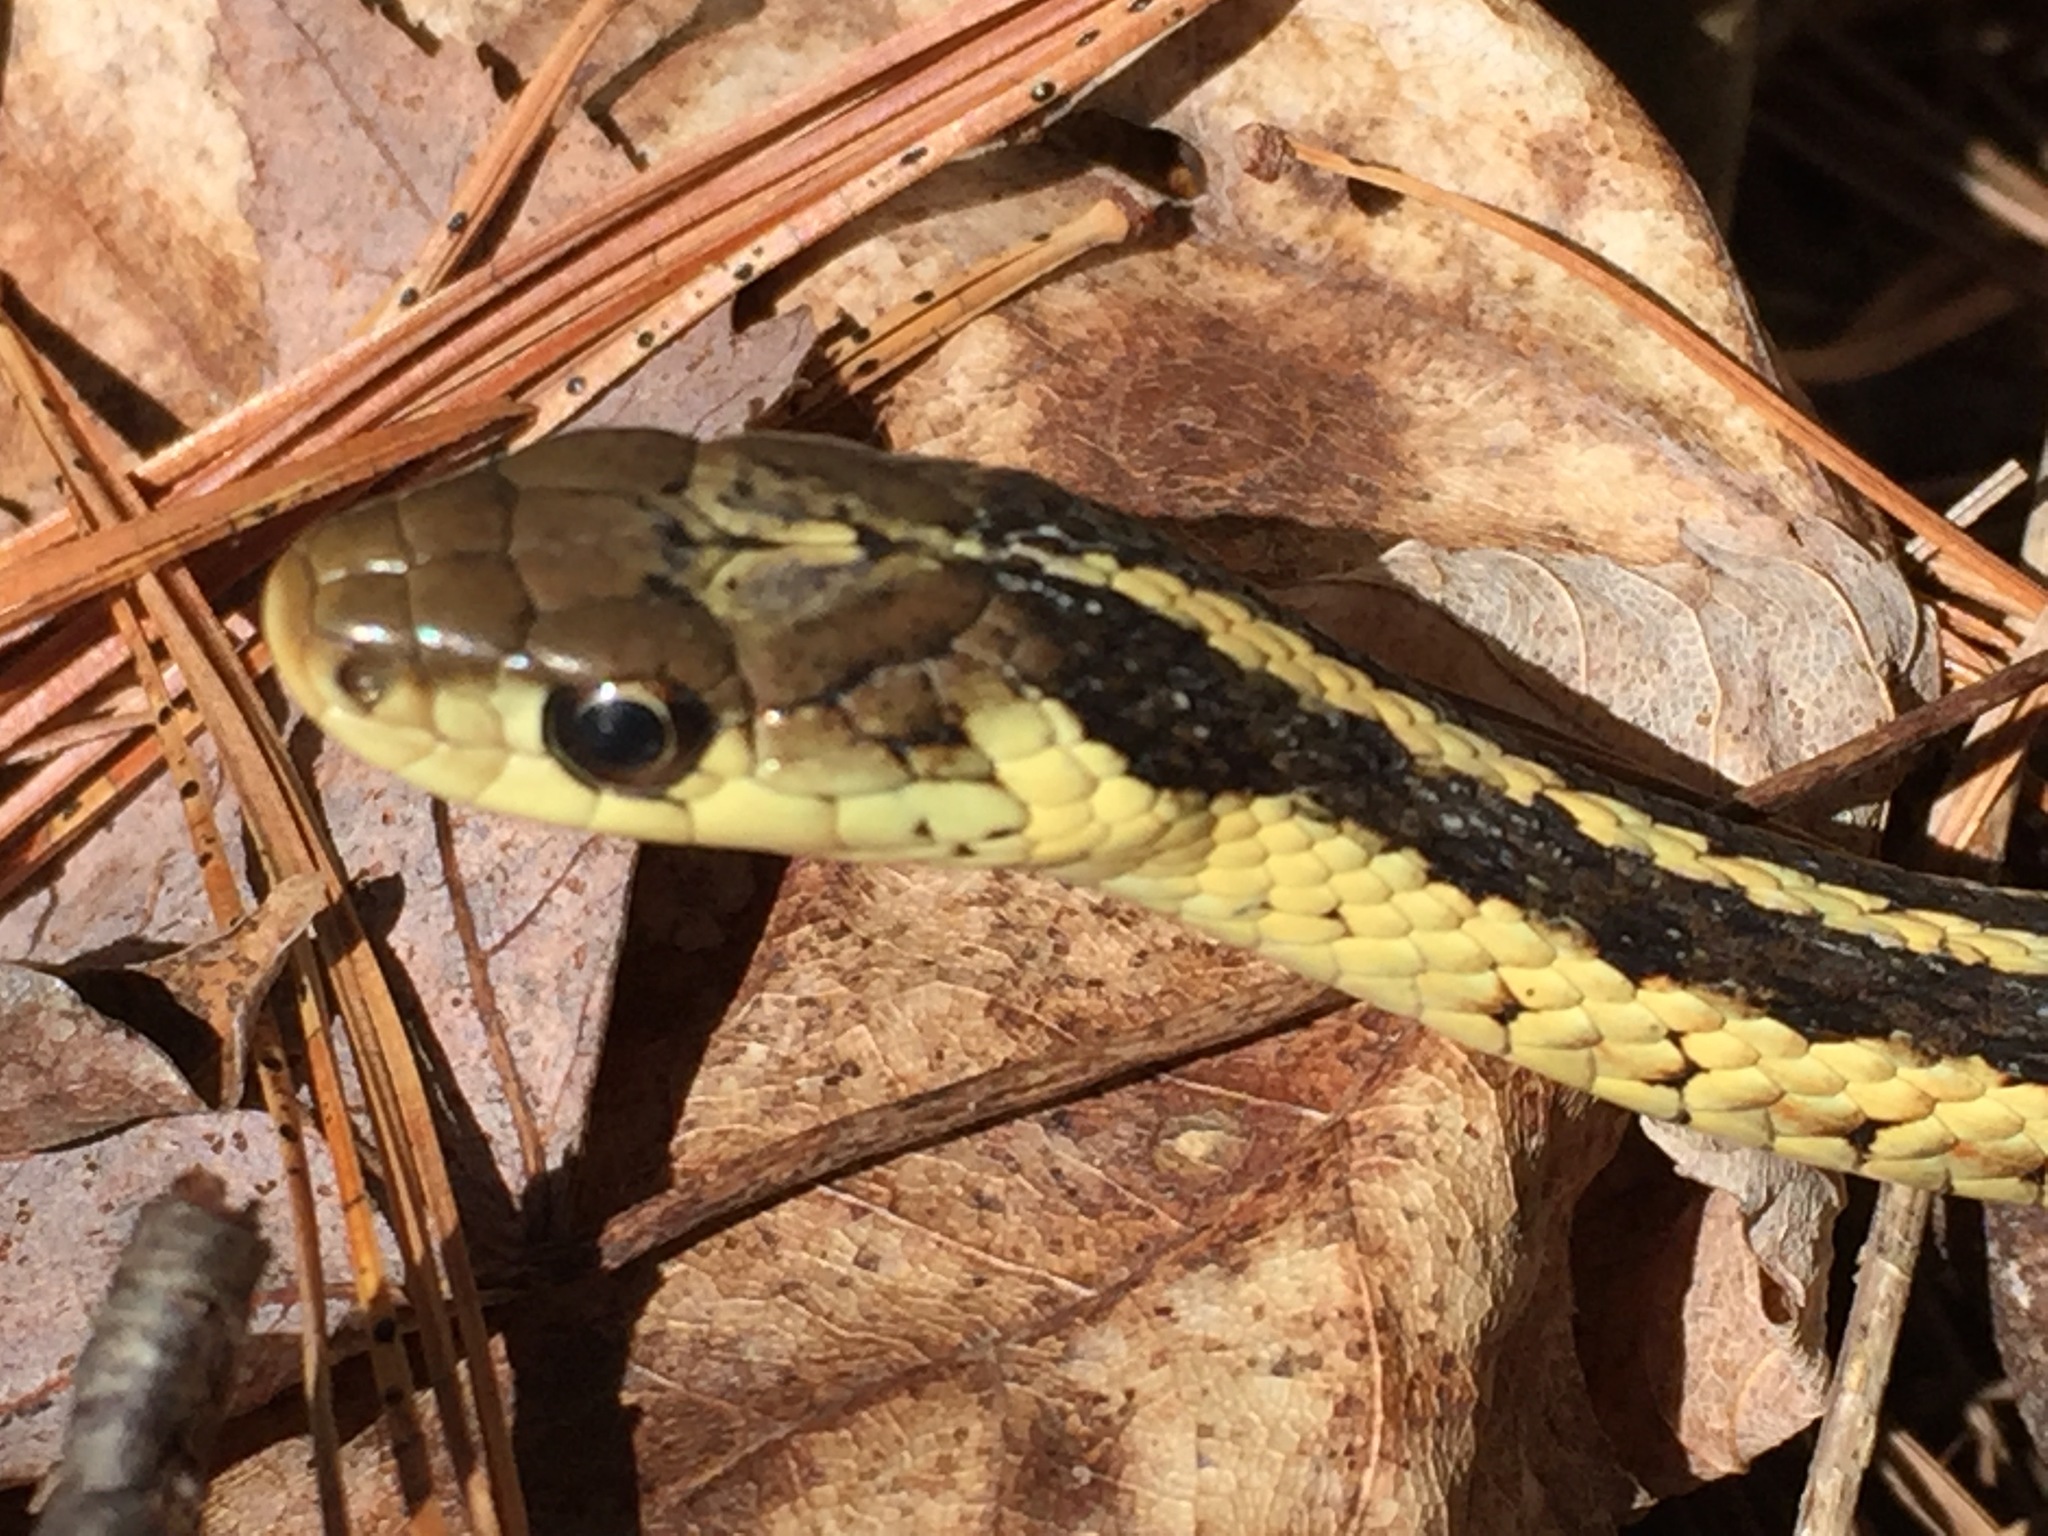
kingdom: Animalia
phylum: Chordata
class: Squamata
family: Colubridae
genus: Thamnophis
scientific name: Thamnophis sirtalis
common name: Common garter snake
